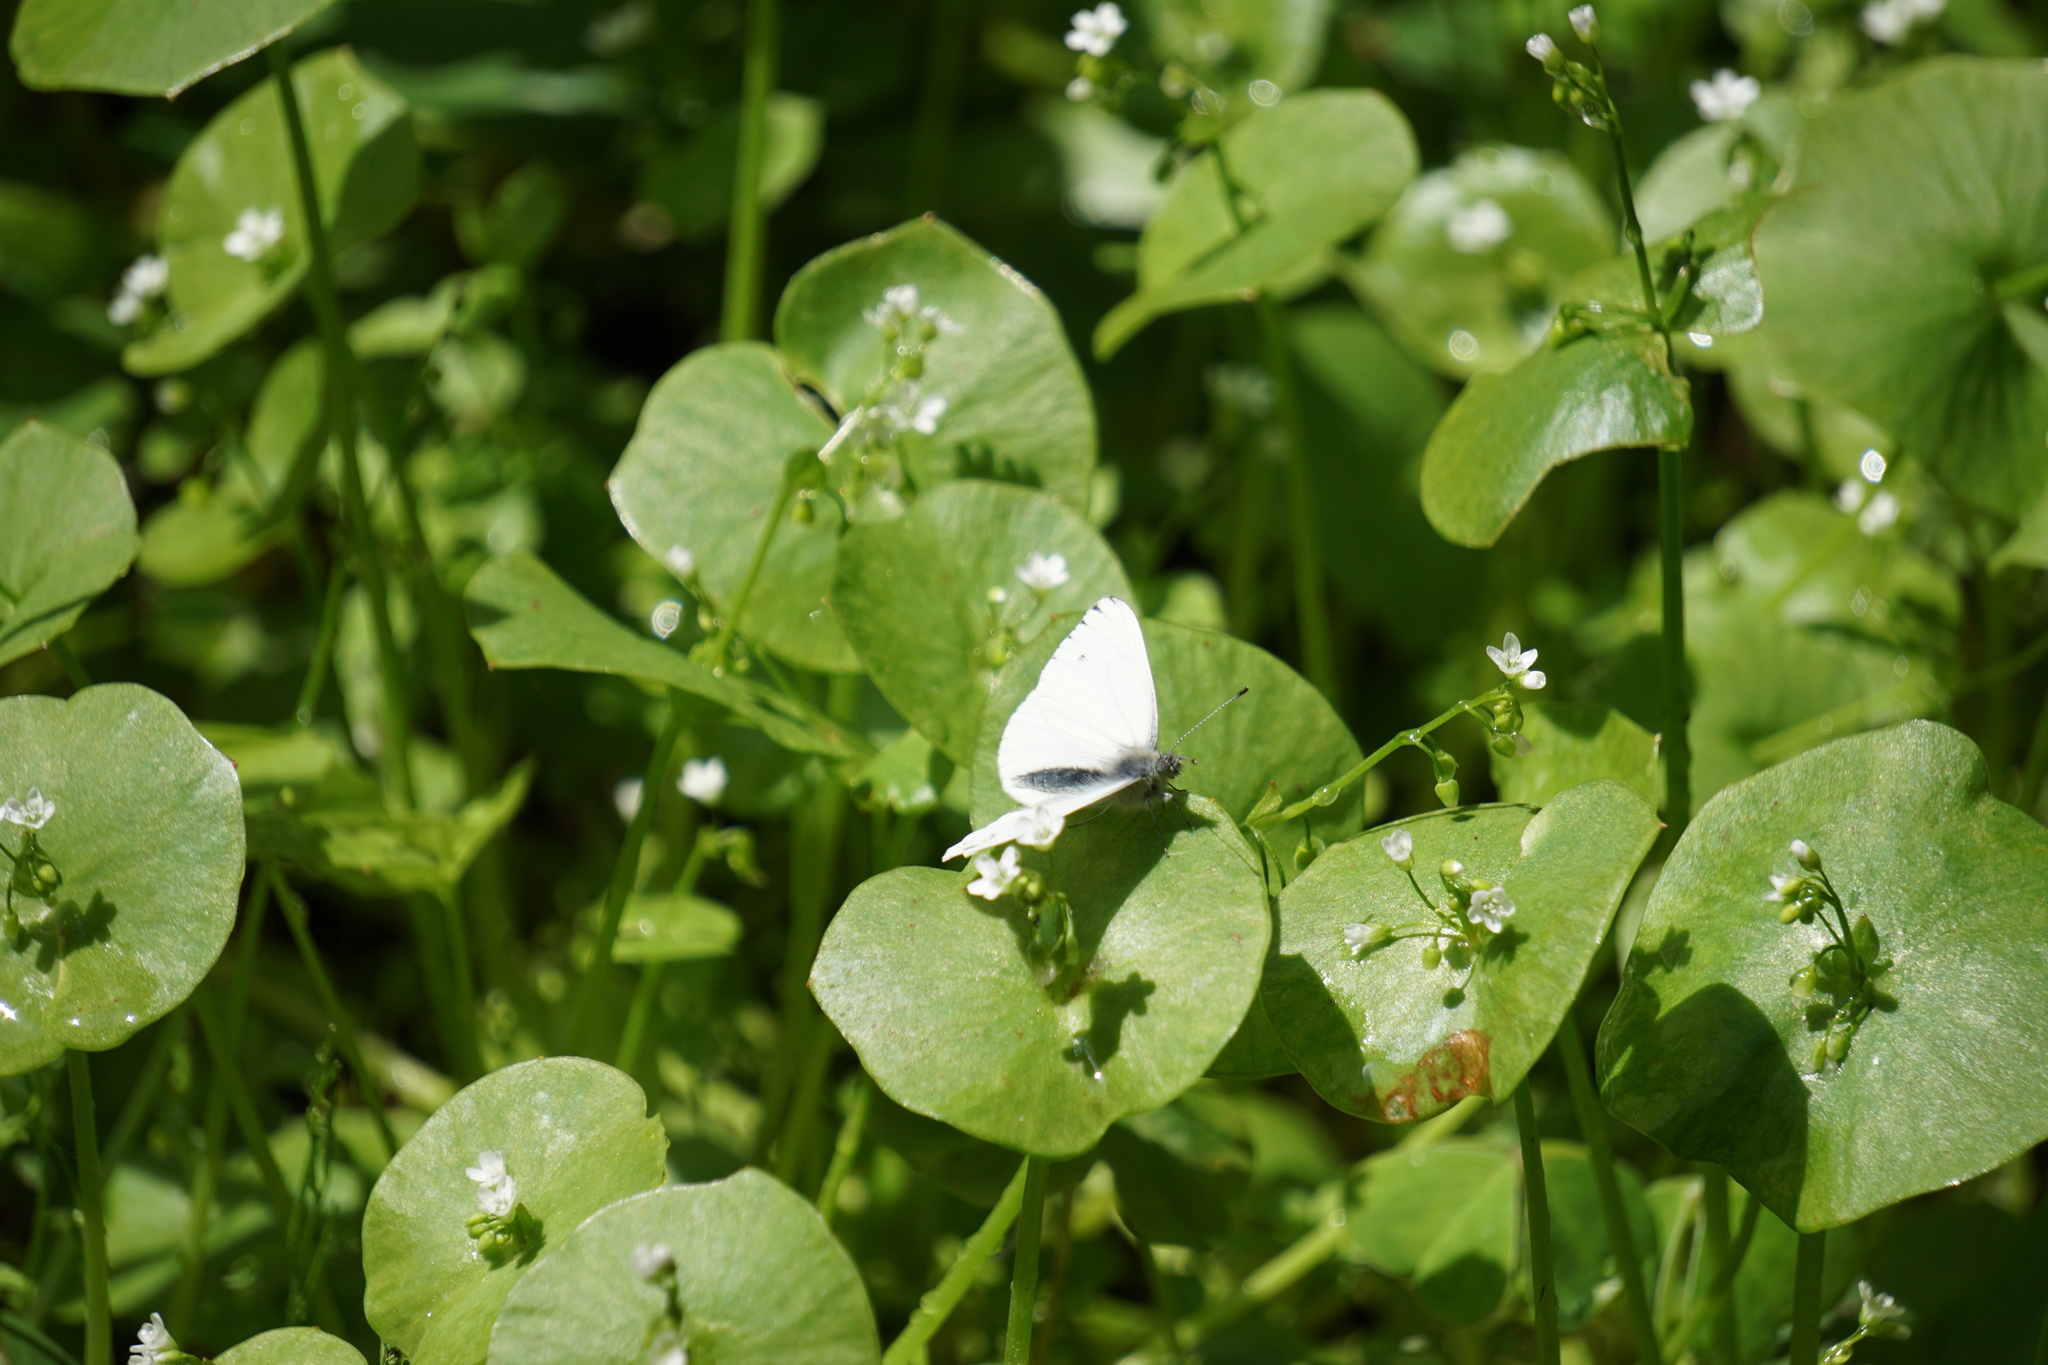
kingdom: Animalia
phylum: Arthropoda
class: Insecta
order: Lepidoptera
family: Pieridae
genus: Pieris
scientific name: Pieris marginalis
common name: Margined white
